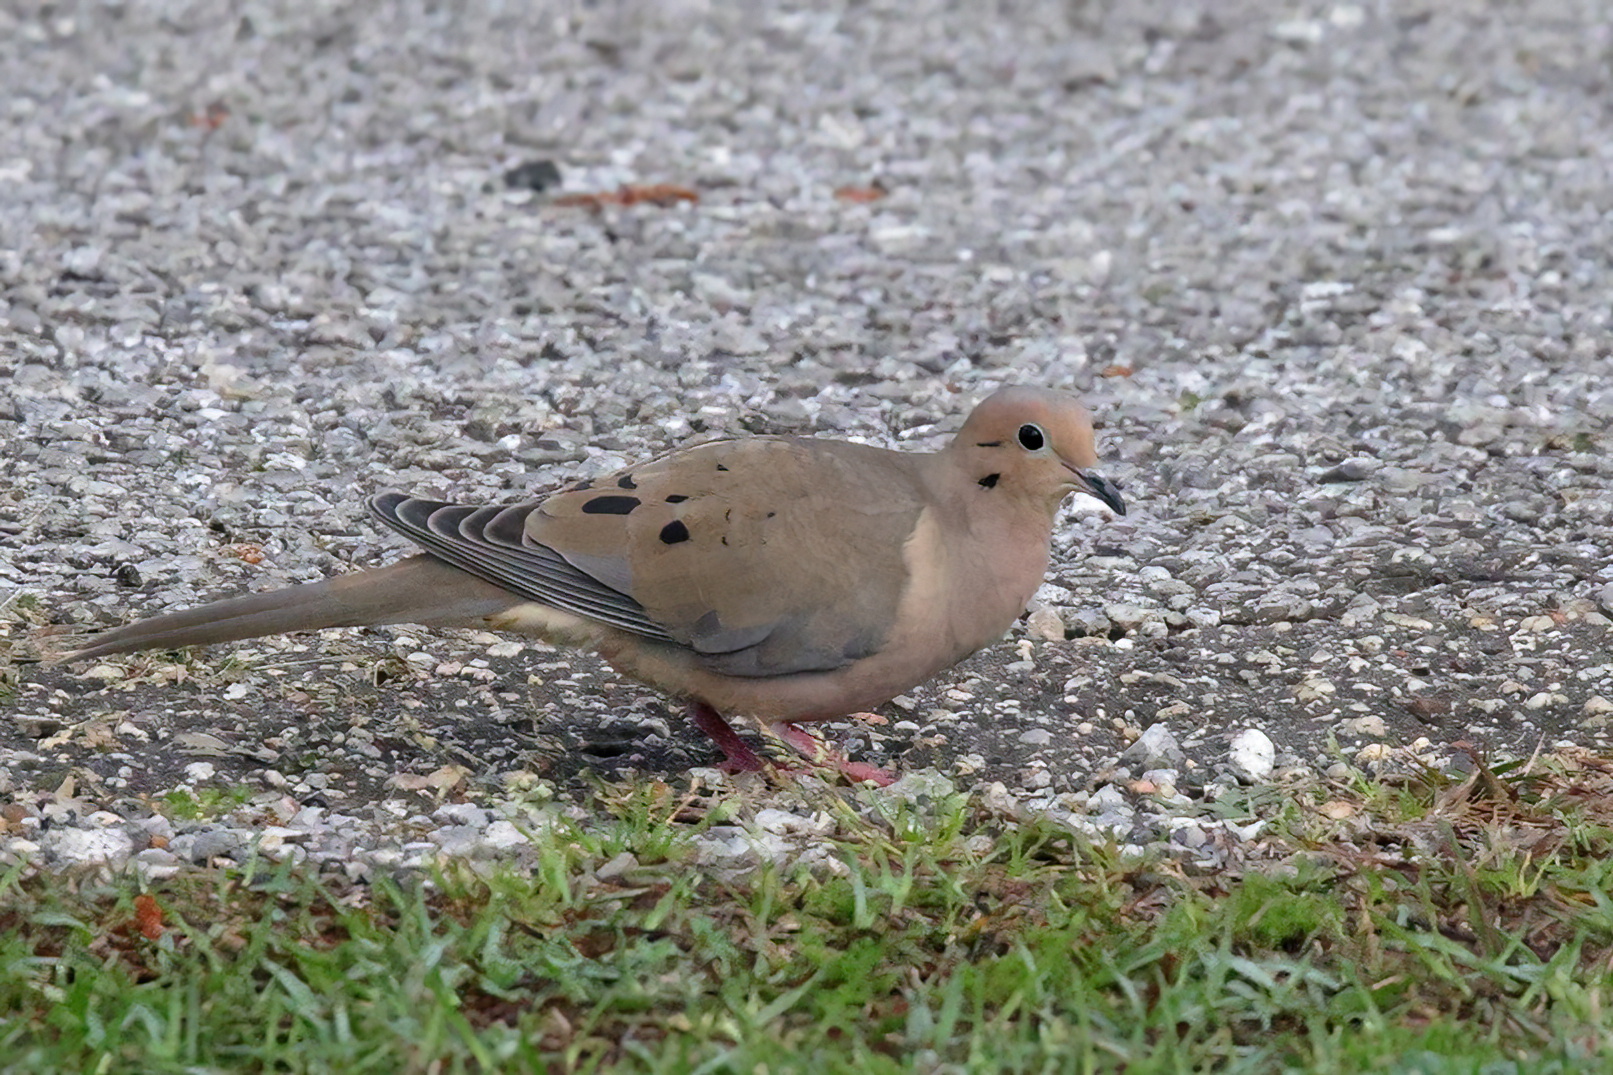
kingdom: Animalia
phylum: Chordata
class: Aves
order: Columbiformes
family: Columbidae
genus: Zenaida
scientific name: Zenaida macroura
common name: Mourning dove
